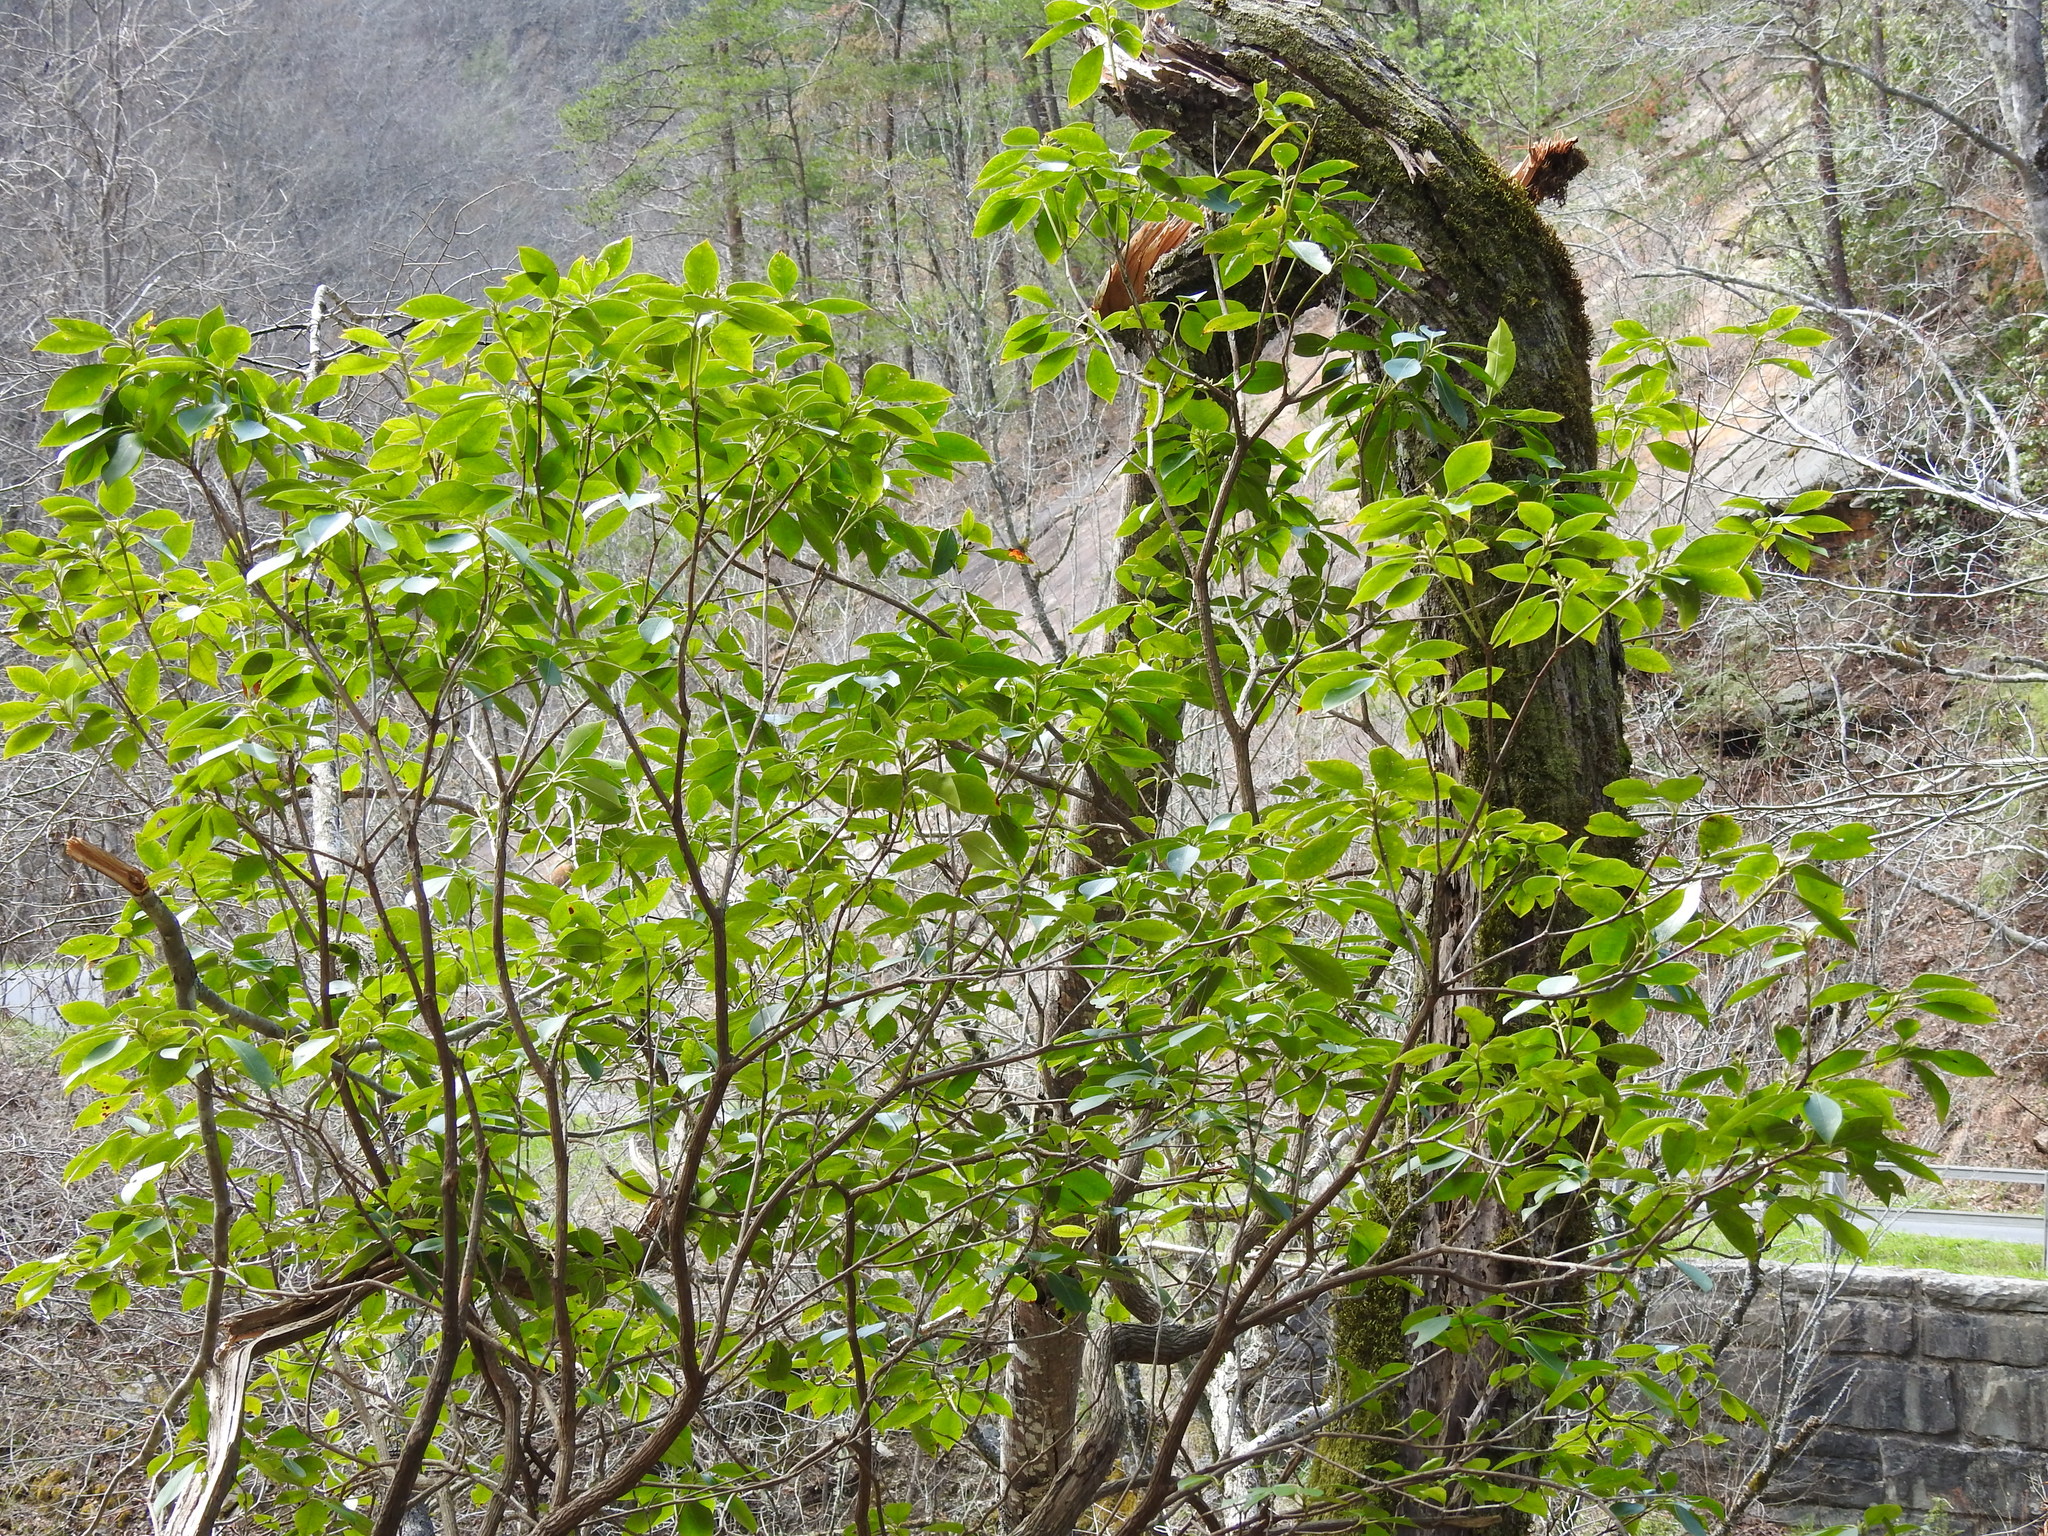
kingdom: Plantae
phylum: Tracheophyta
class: Magnoliopsida
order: Ericales
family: Ericaceae
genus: Kalmia
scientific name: Kalmia latifolia
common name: Mountain-laurel
